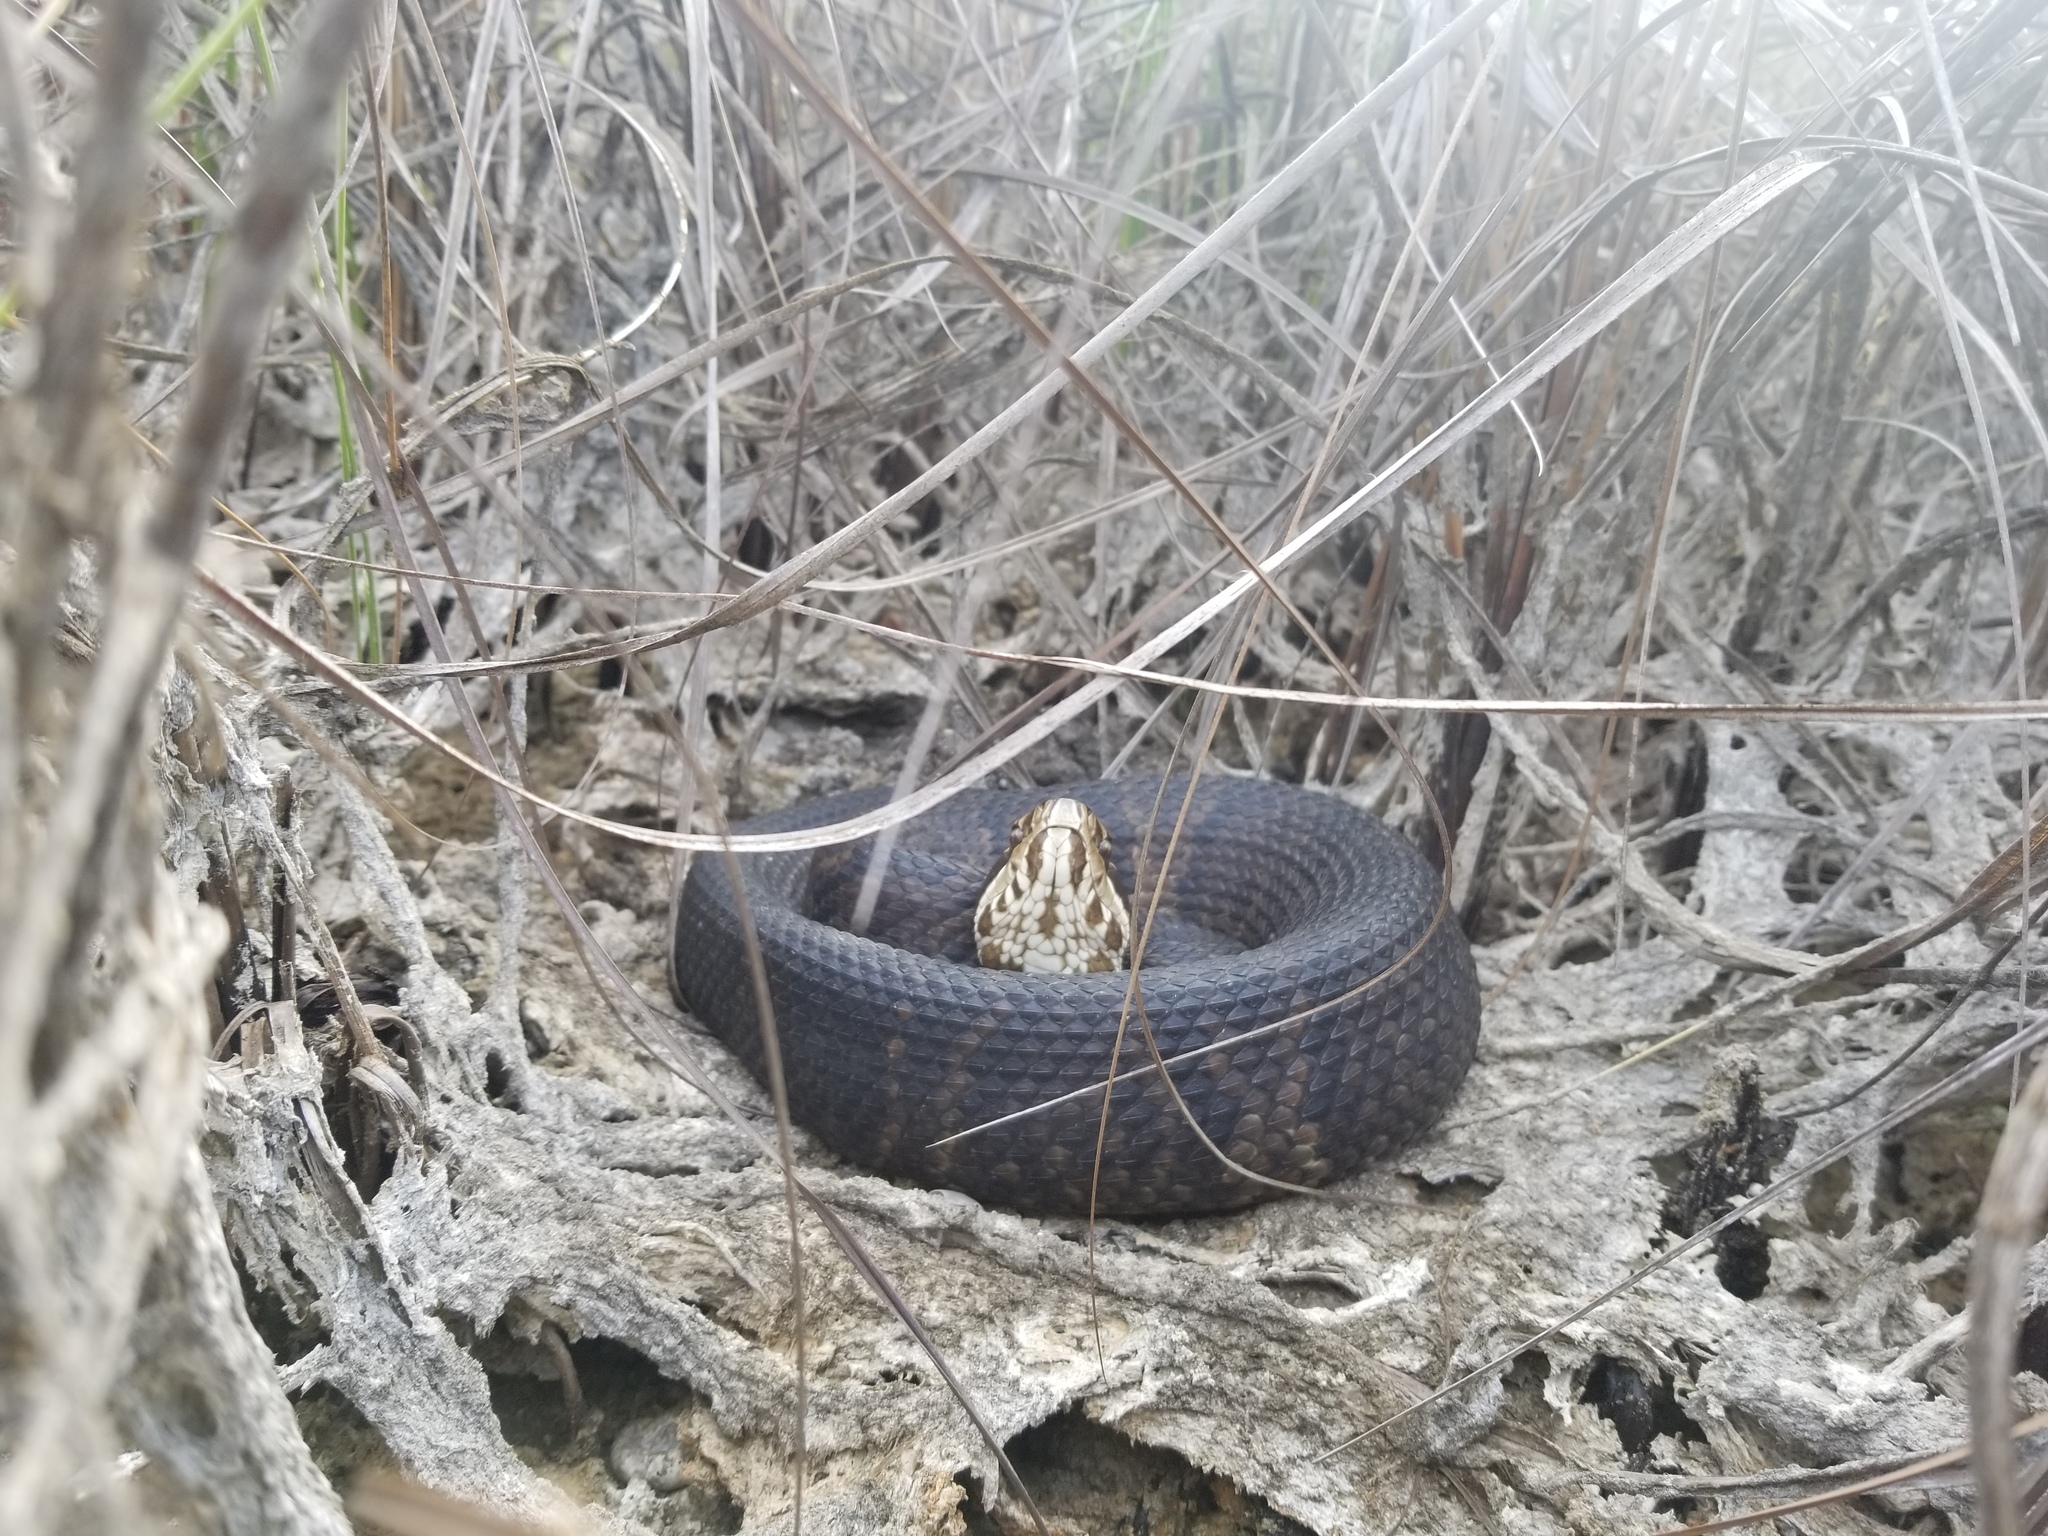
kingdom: Animalia
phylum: Chordata
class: Squamata
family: Viperidae
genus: Agkistrodon
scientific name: Agkistrodon conanti
